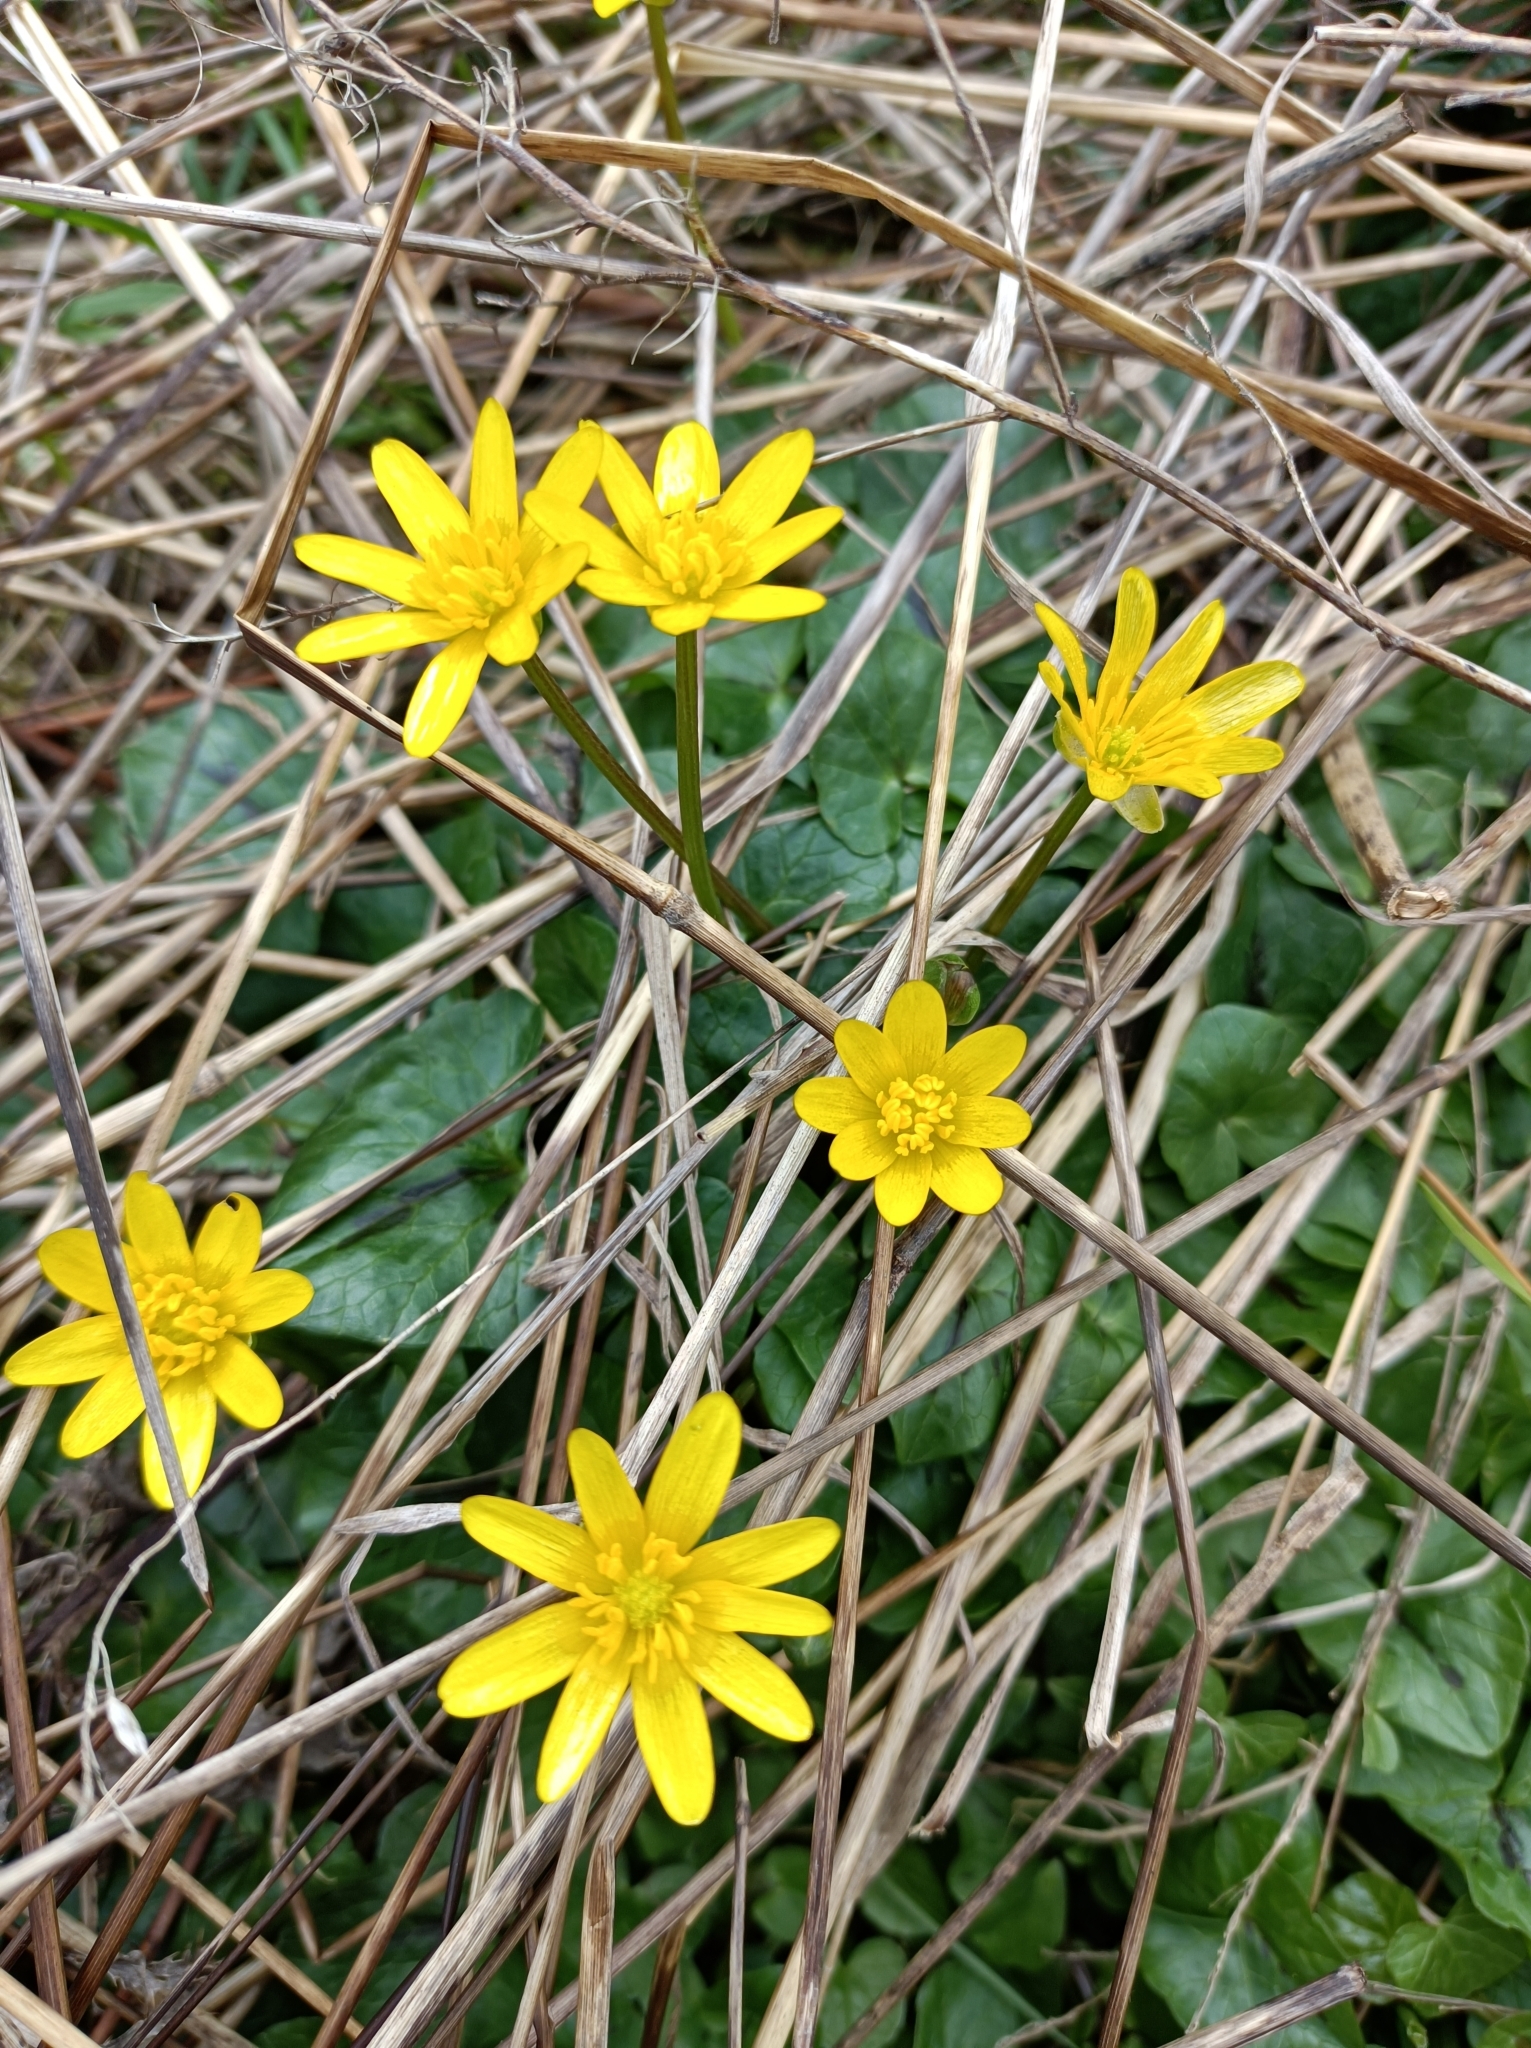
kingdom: Plantae
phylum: Tracheophyta
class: Magnoliopsida
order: Ranunculales
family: Ranunculaceae
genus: Ficaria
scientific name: Ficaria verna
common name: Lesser celandine
